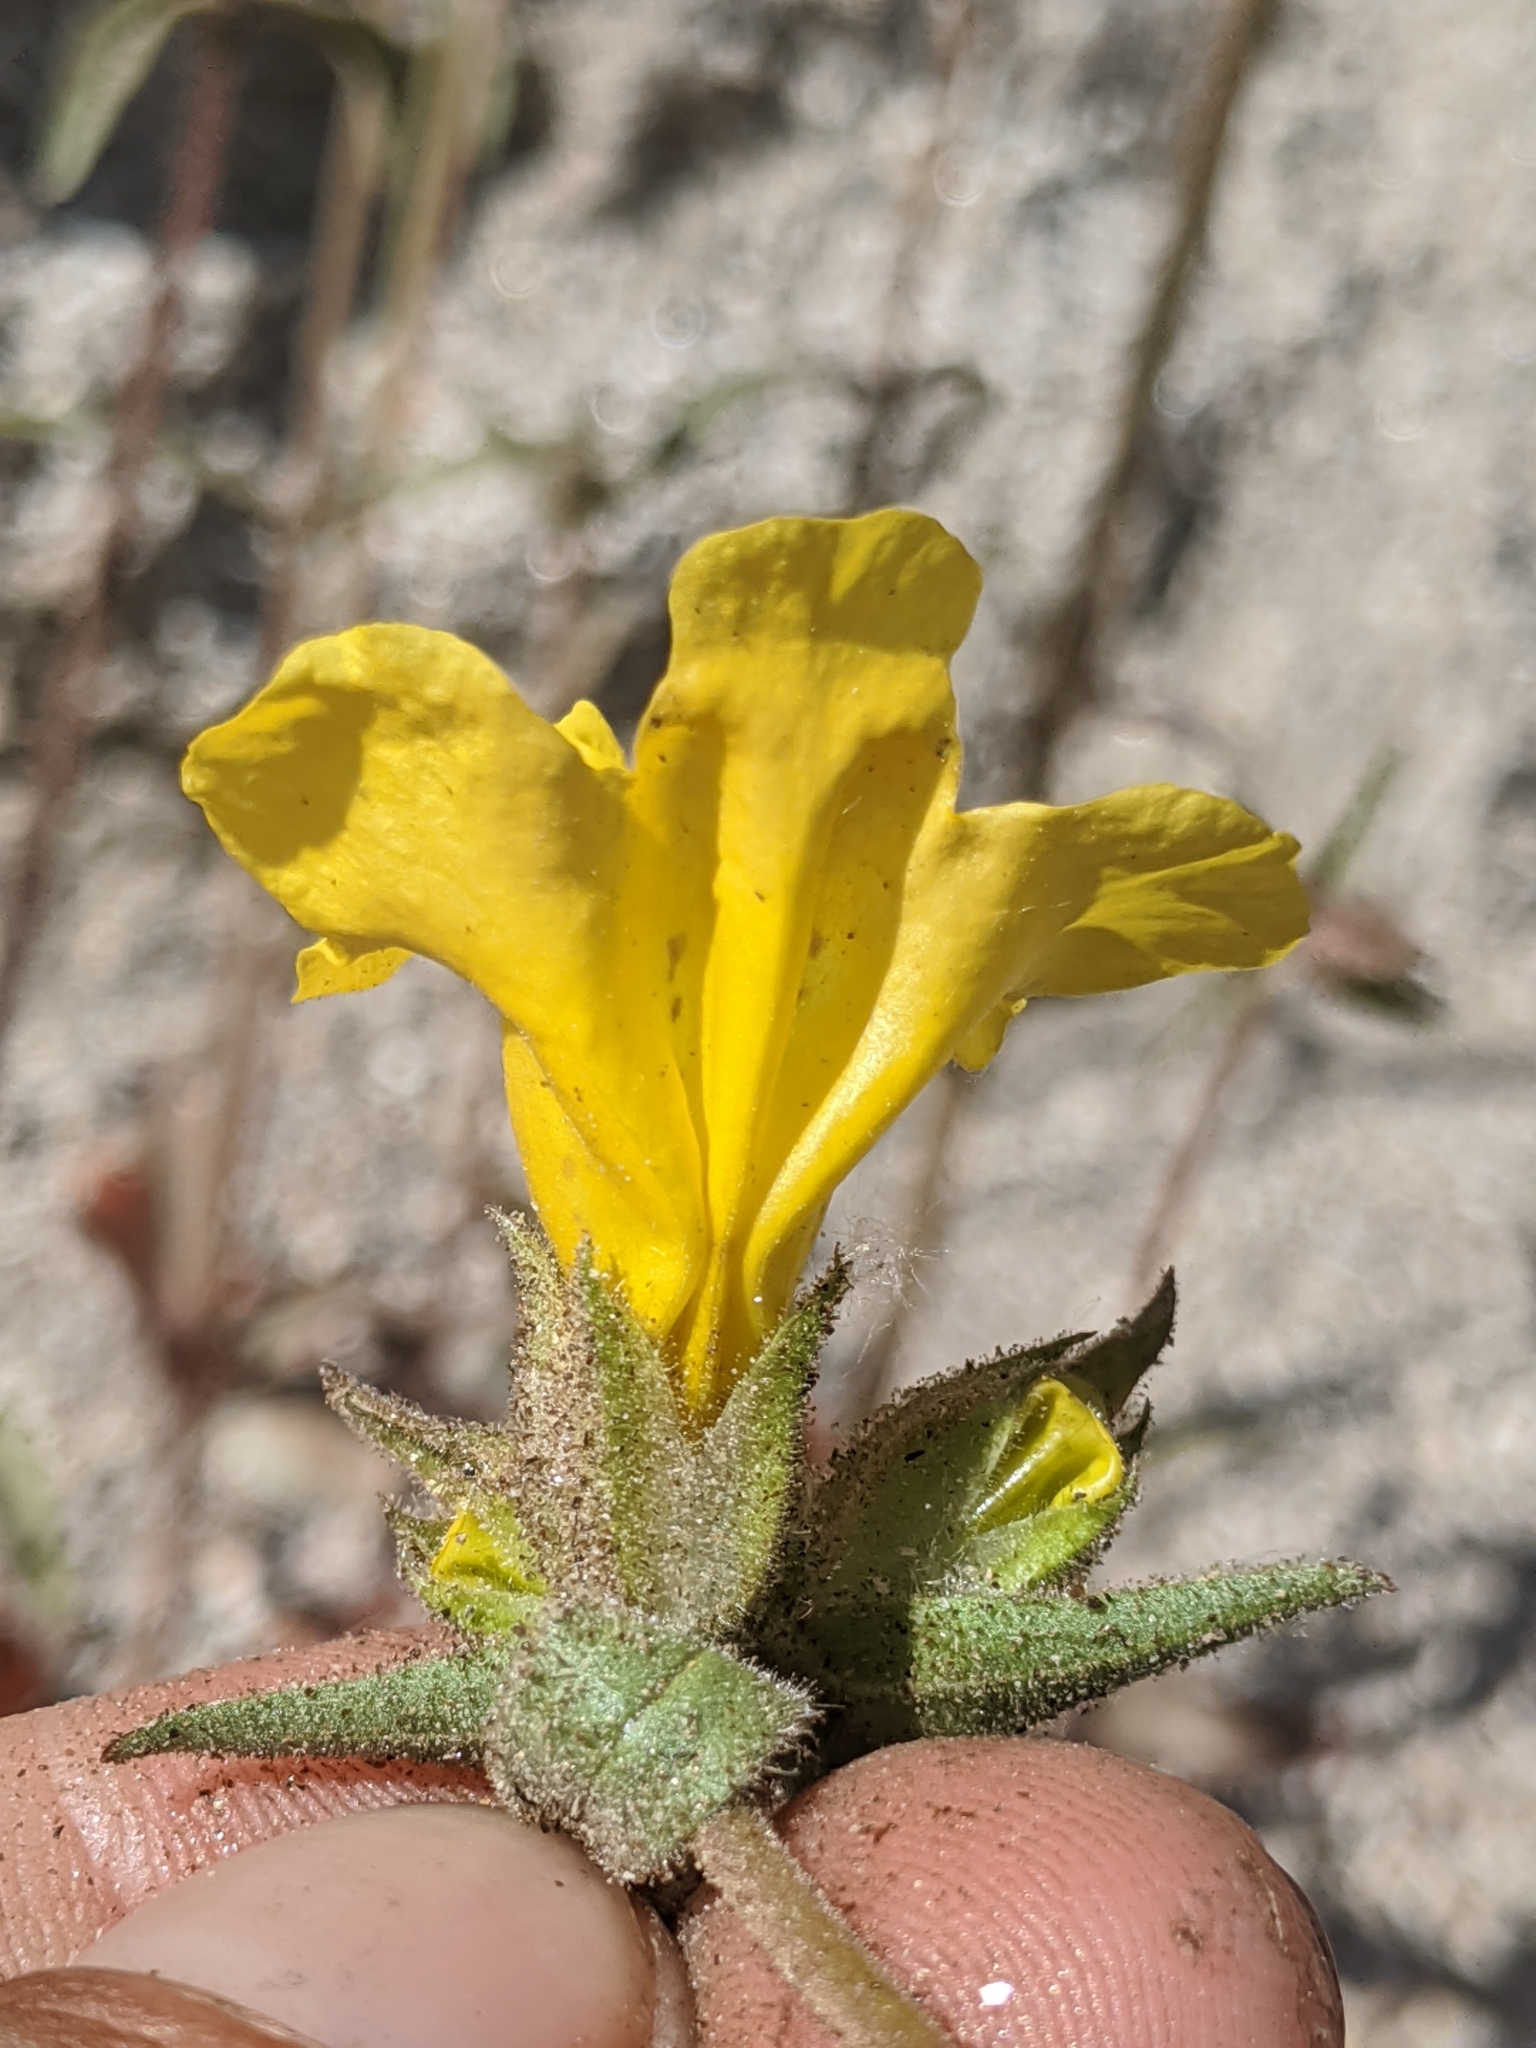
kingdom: Plantae
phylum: Tracheophyta
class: Magnoliopsida
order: Lamiales
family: Phrymaceae
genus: Diplacus
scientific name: Diplacus brevipes
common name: Wide-throat yellow monkey-flower
